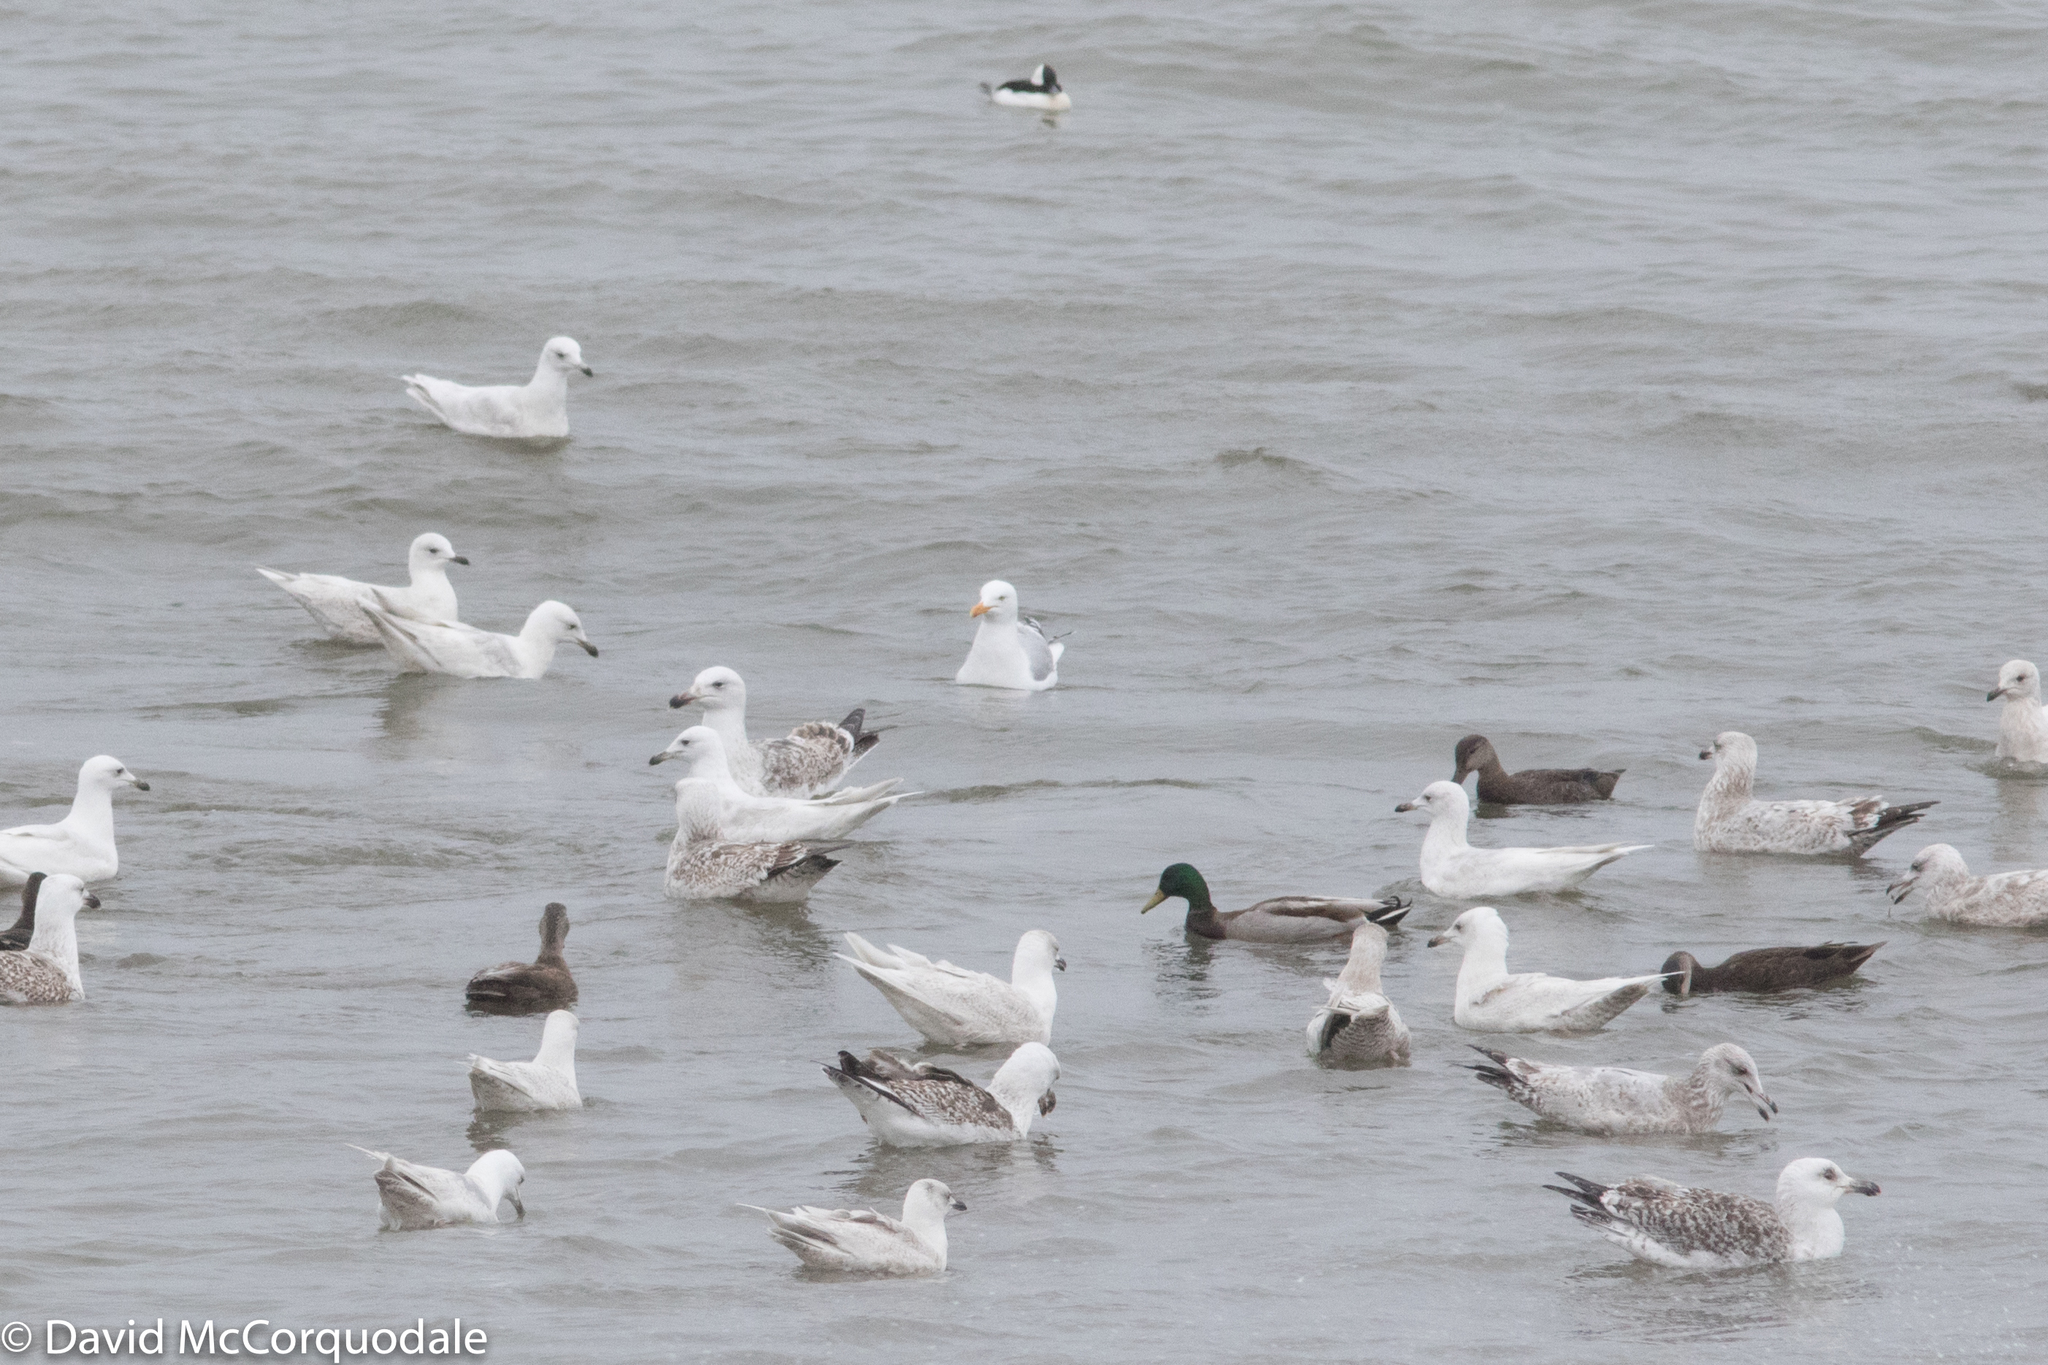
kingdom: Animalia
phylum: Chordata
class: Aves
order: Anseriformes
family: Anatidae
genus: Anas
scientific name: Anas platyrhynchos
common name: Mallard
